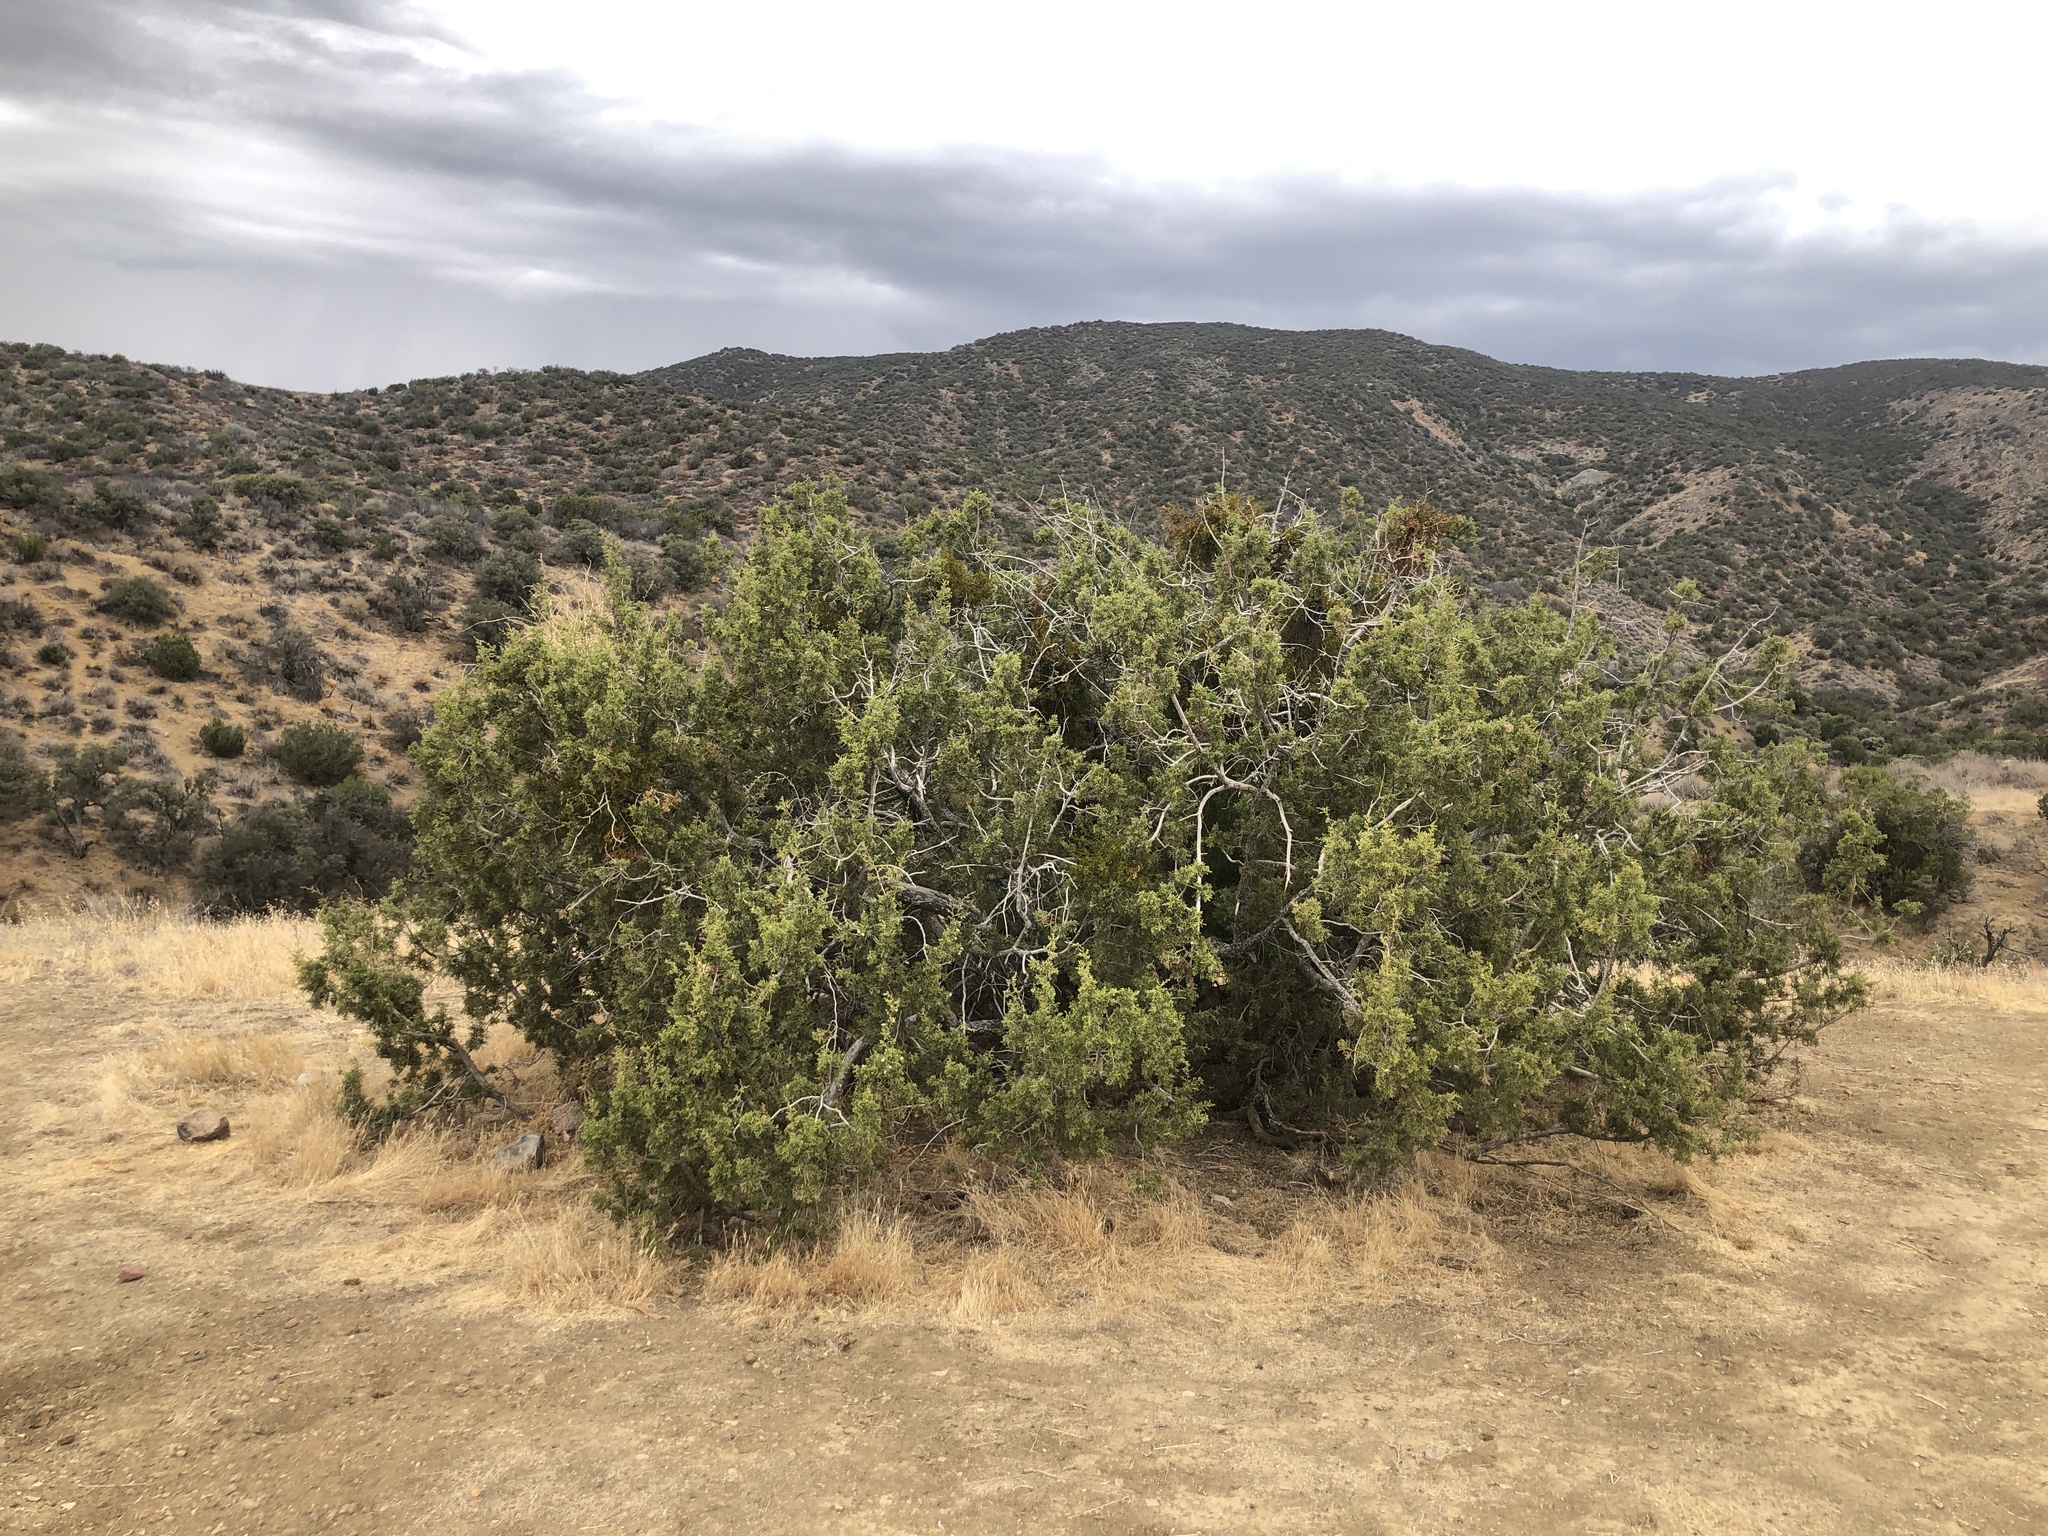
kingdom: Plantae
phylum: Tracheophyta
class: Pinopsida
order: Pinales
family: Cupressaceae
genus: Juniperus
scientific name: Juniperus californica
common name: California juniper
